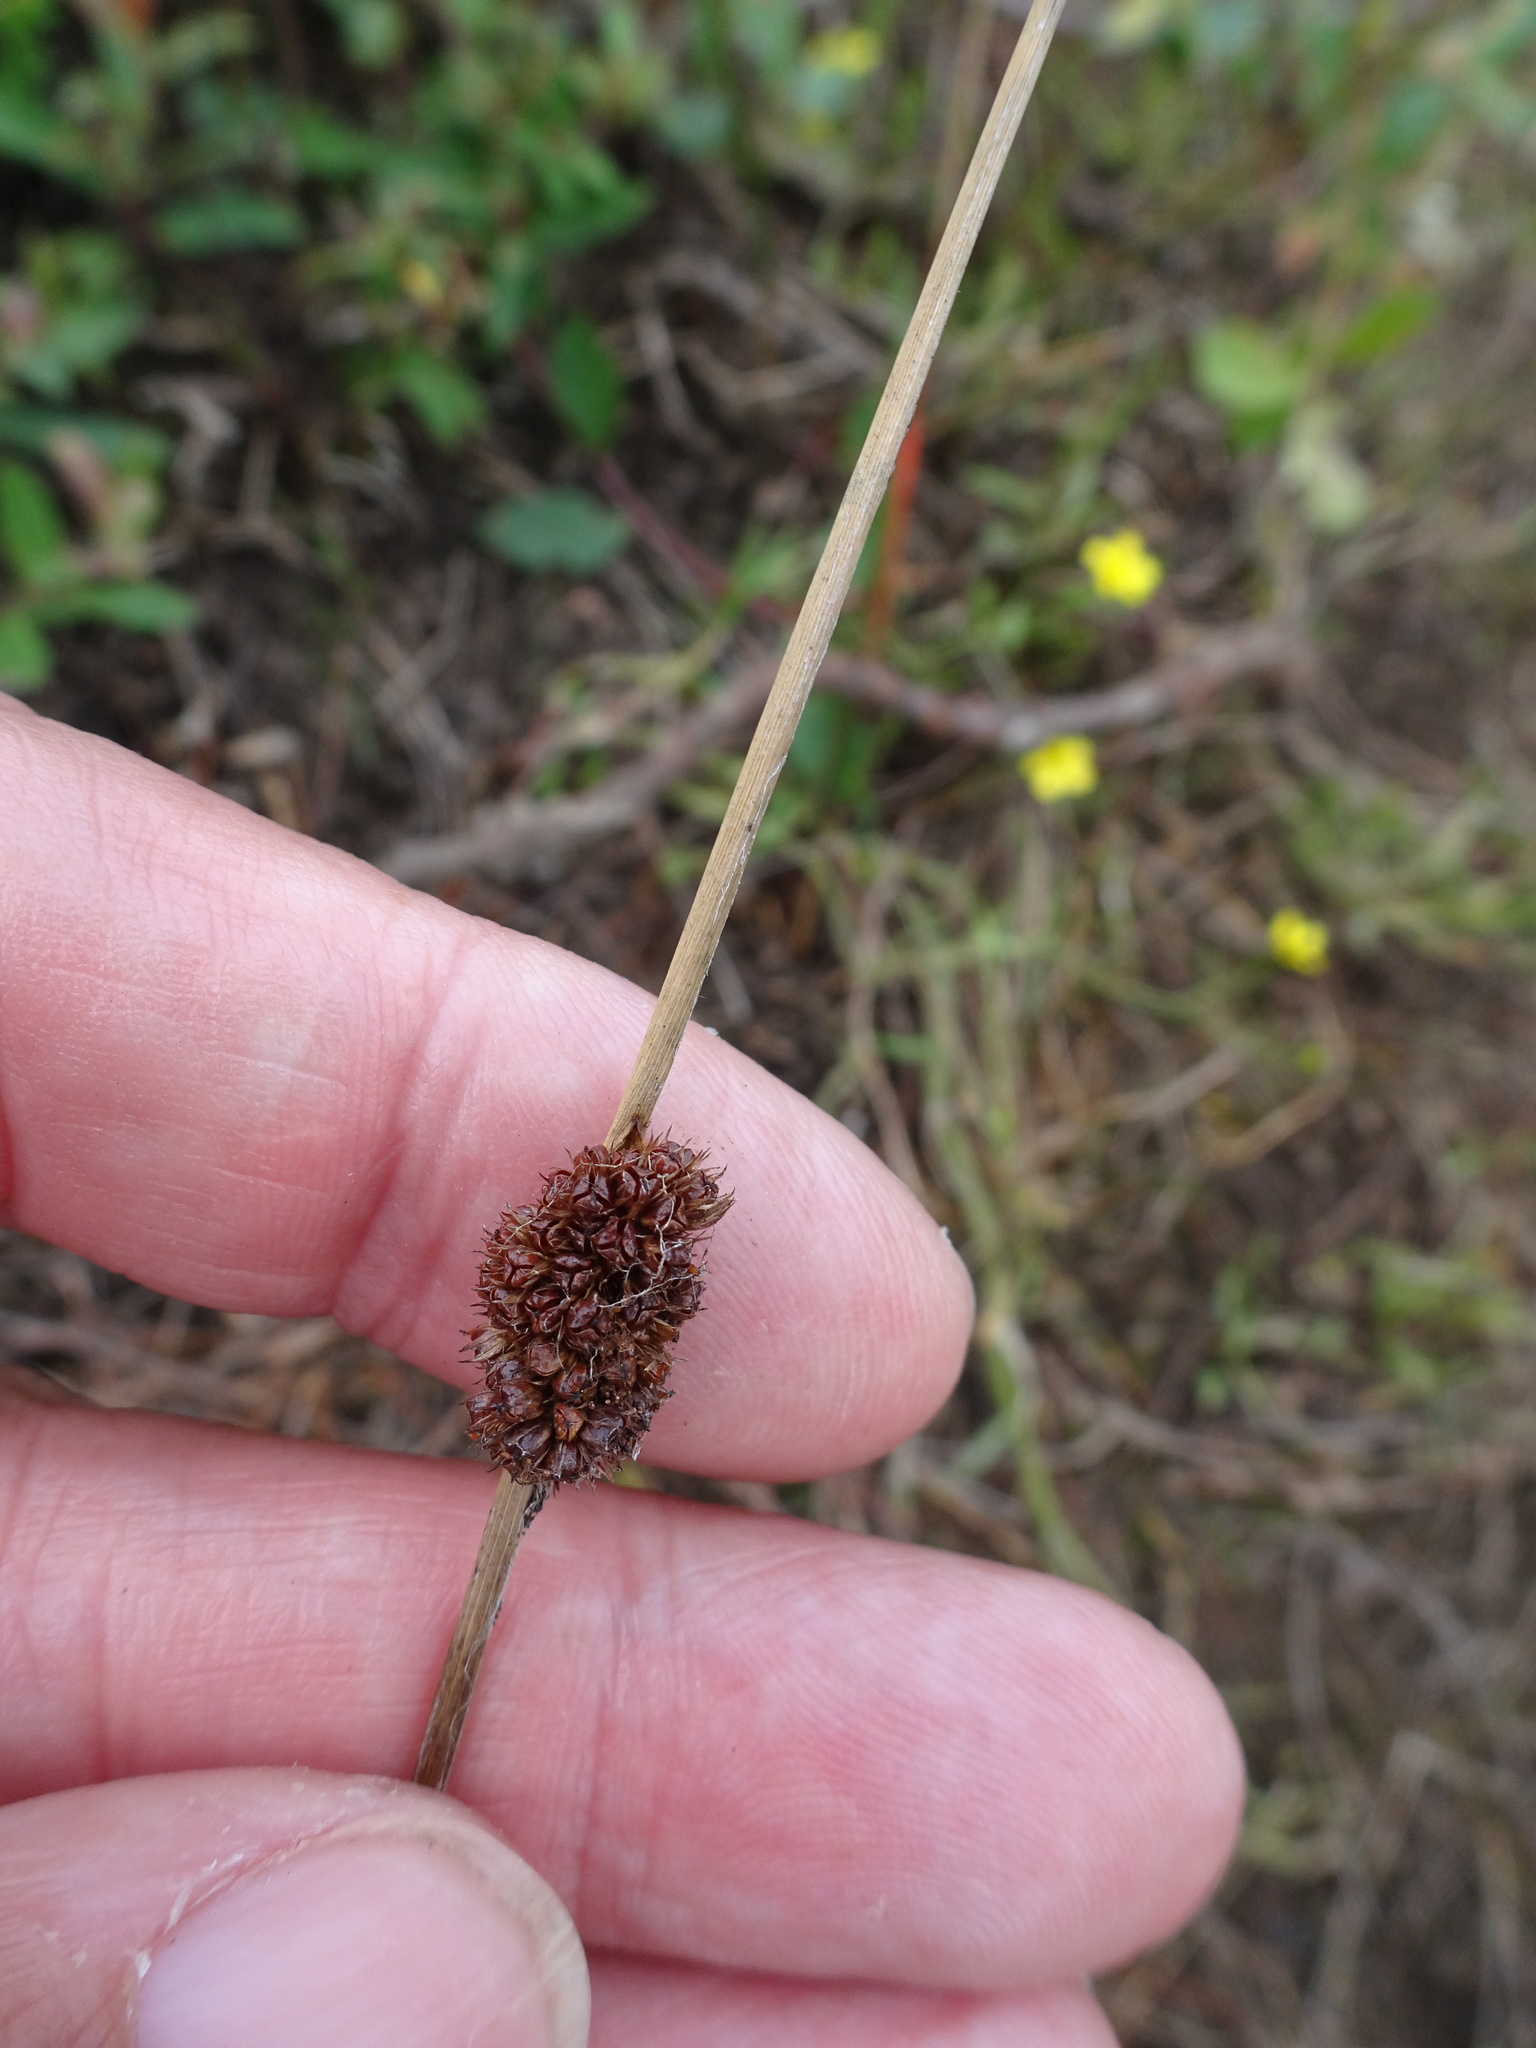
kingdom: Plantae
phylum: Tracheophyta
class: Liliopsida
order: Poales
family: Juncaceae
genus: Juncus
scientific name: Juncus conglomeratus
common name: Compact rush
